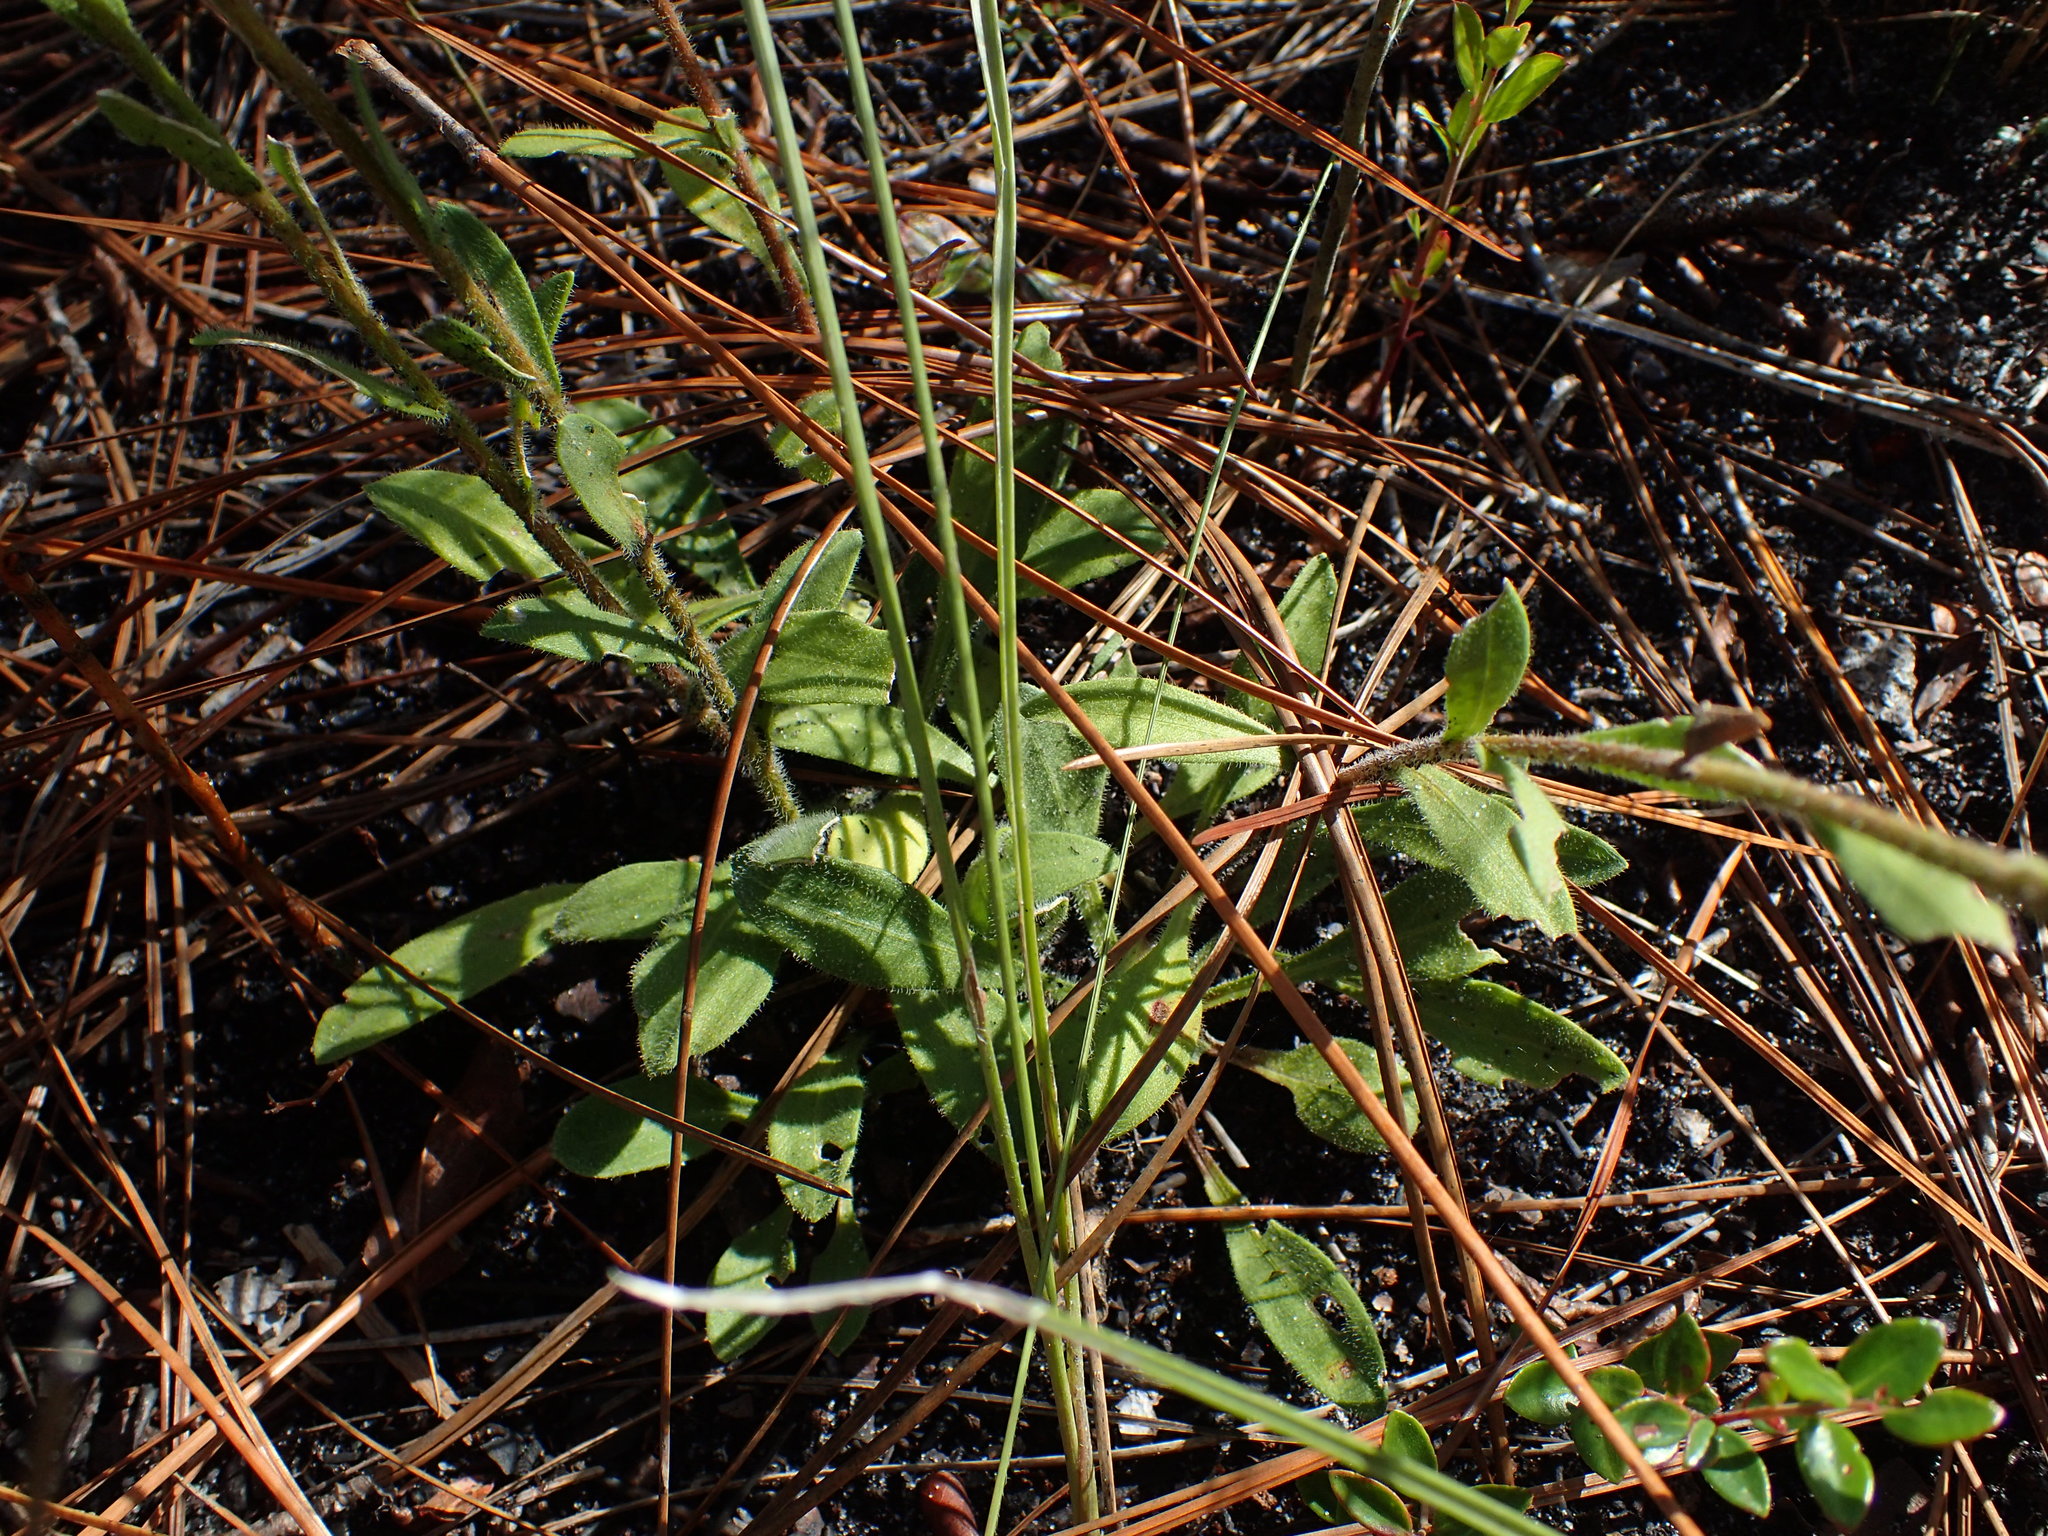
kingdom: Plantae
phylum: Tracheophyta
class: Magnoliopsida
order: Asterales
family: Asteraceae
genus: Carphephorus
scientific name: Carphephorus tomentosus
